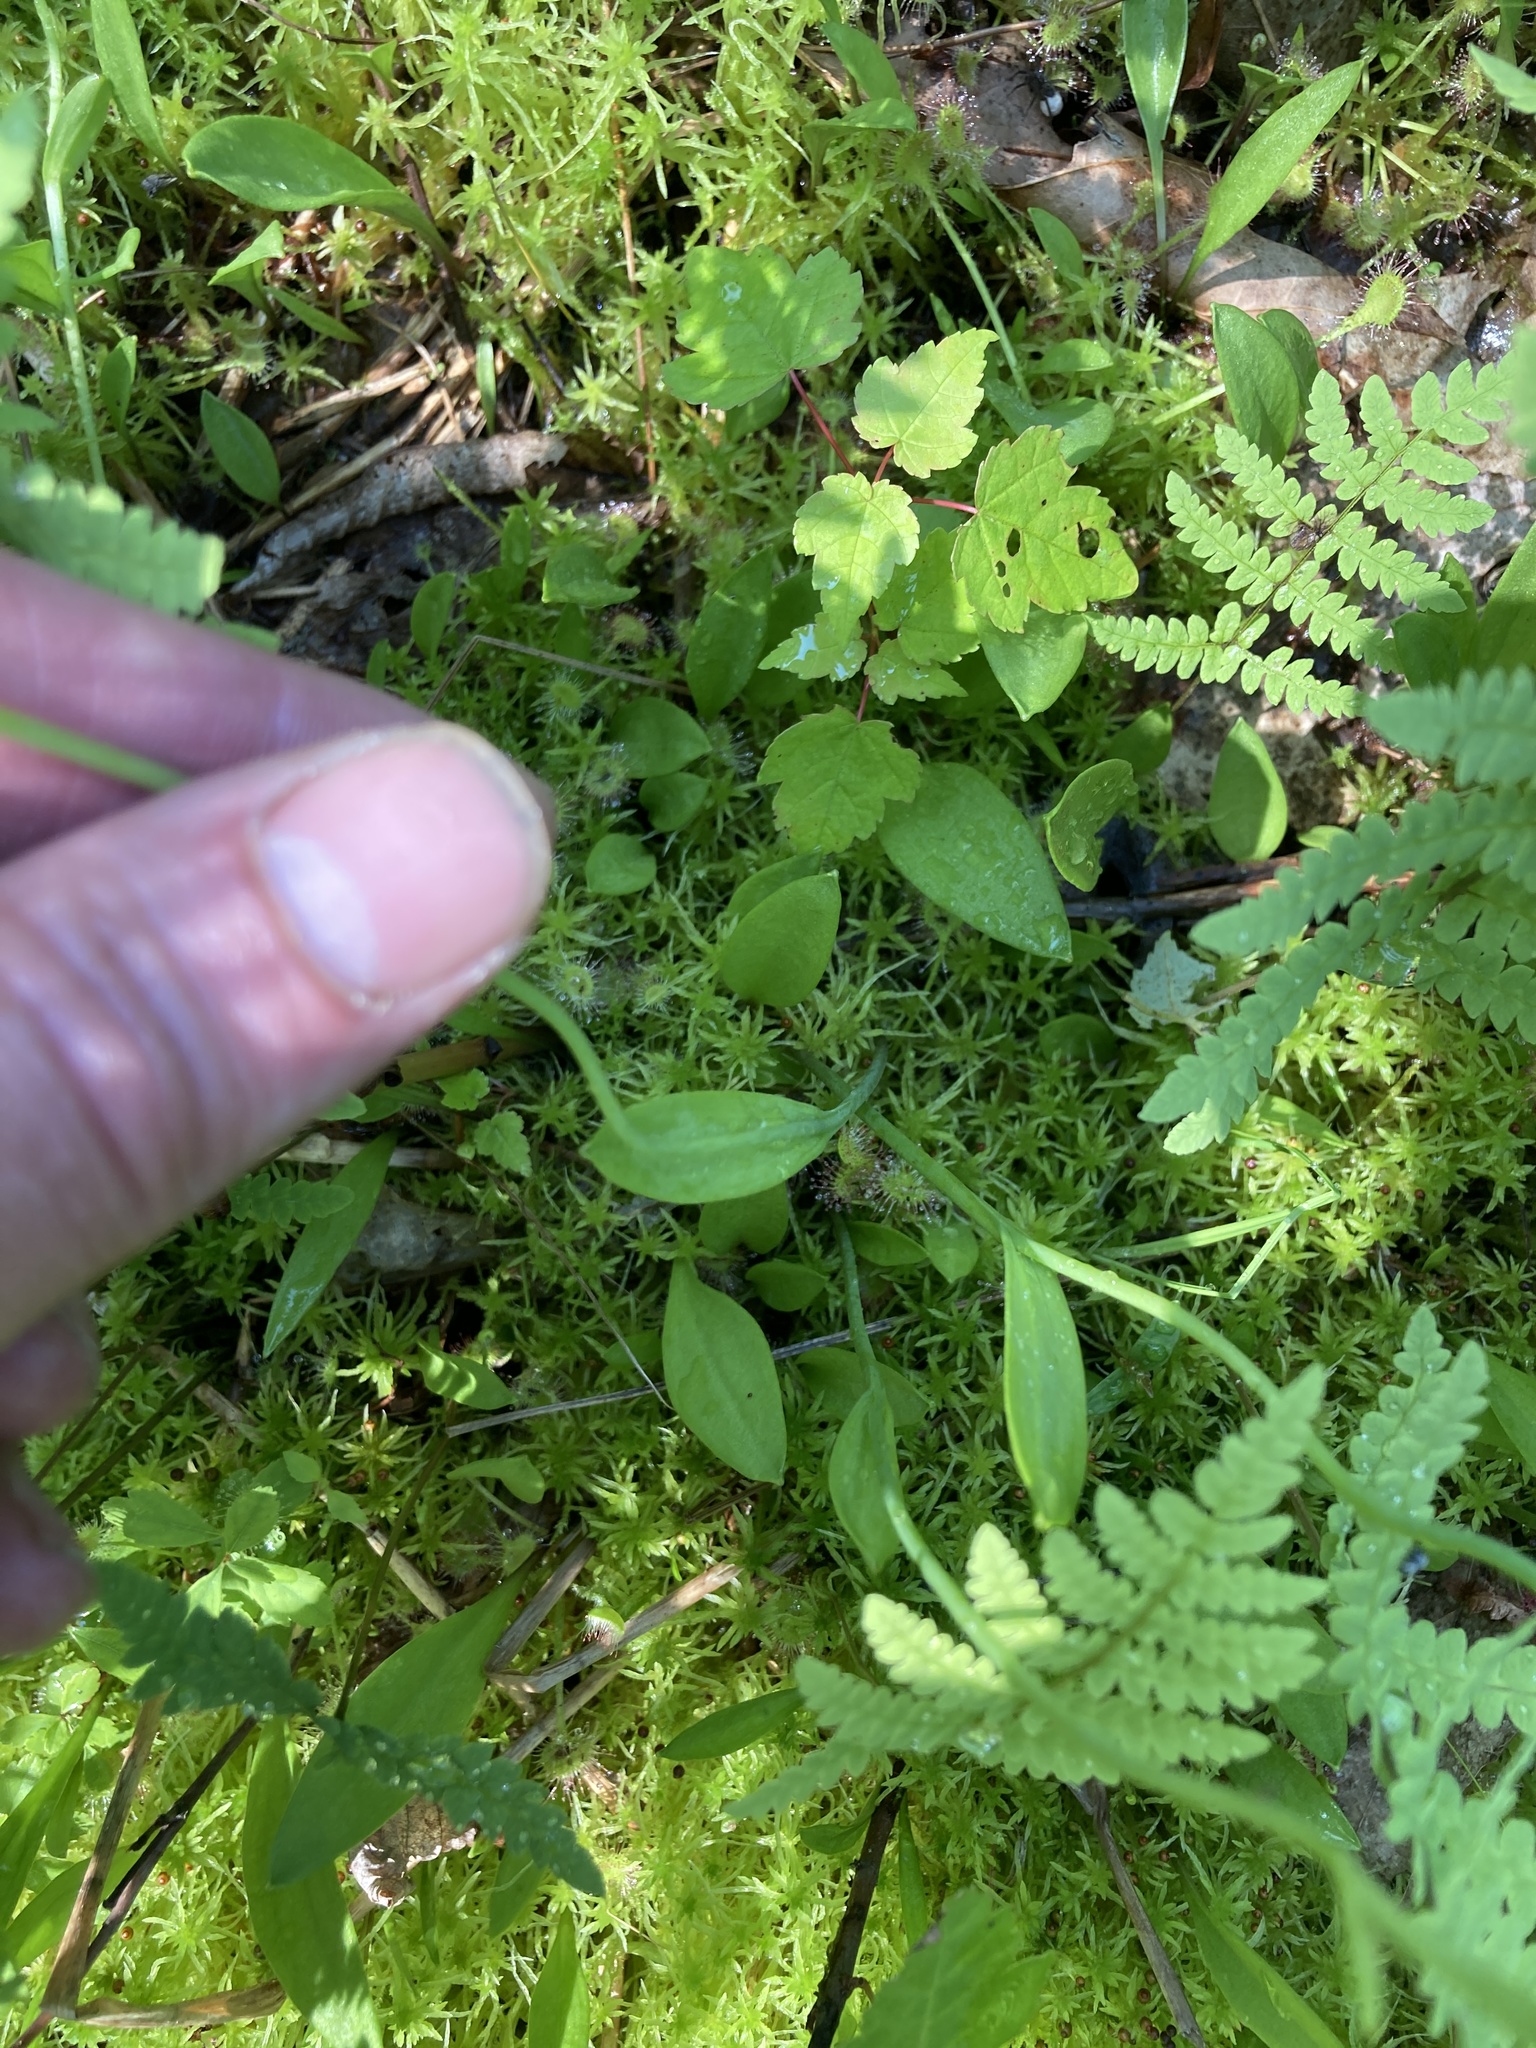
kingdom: Plantae
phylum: Tracheophyta
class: Liliopsida
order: Asparagales
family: Orchidaceae
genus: Pogonia
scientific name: Pogonia ophioglossoides
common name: Rose pogonia
